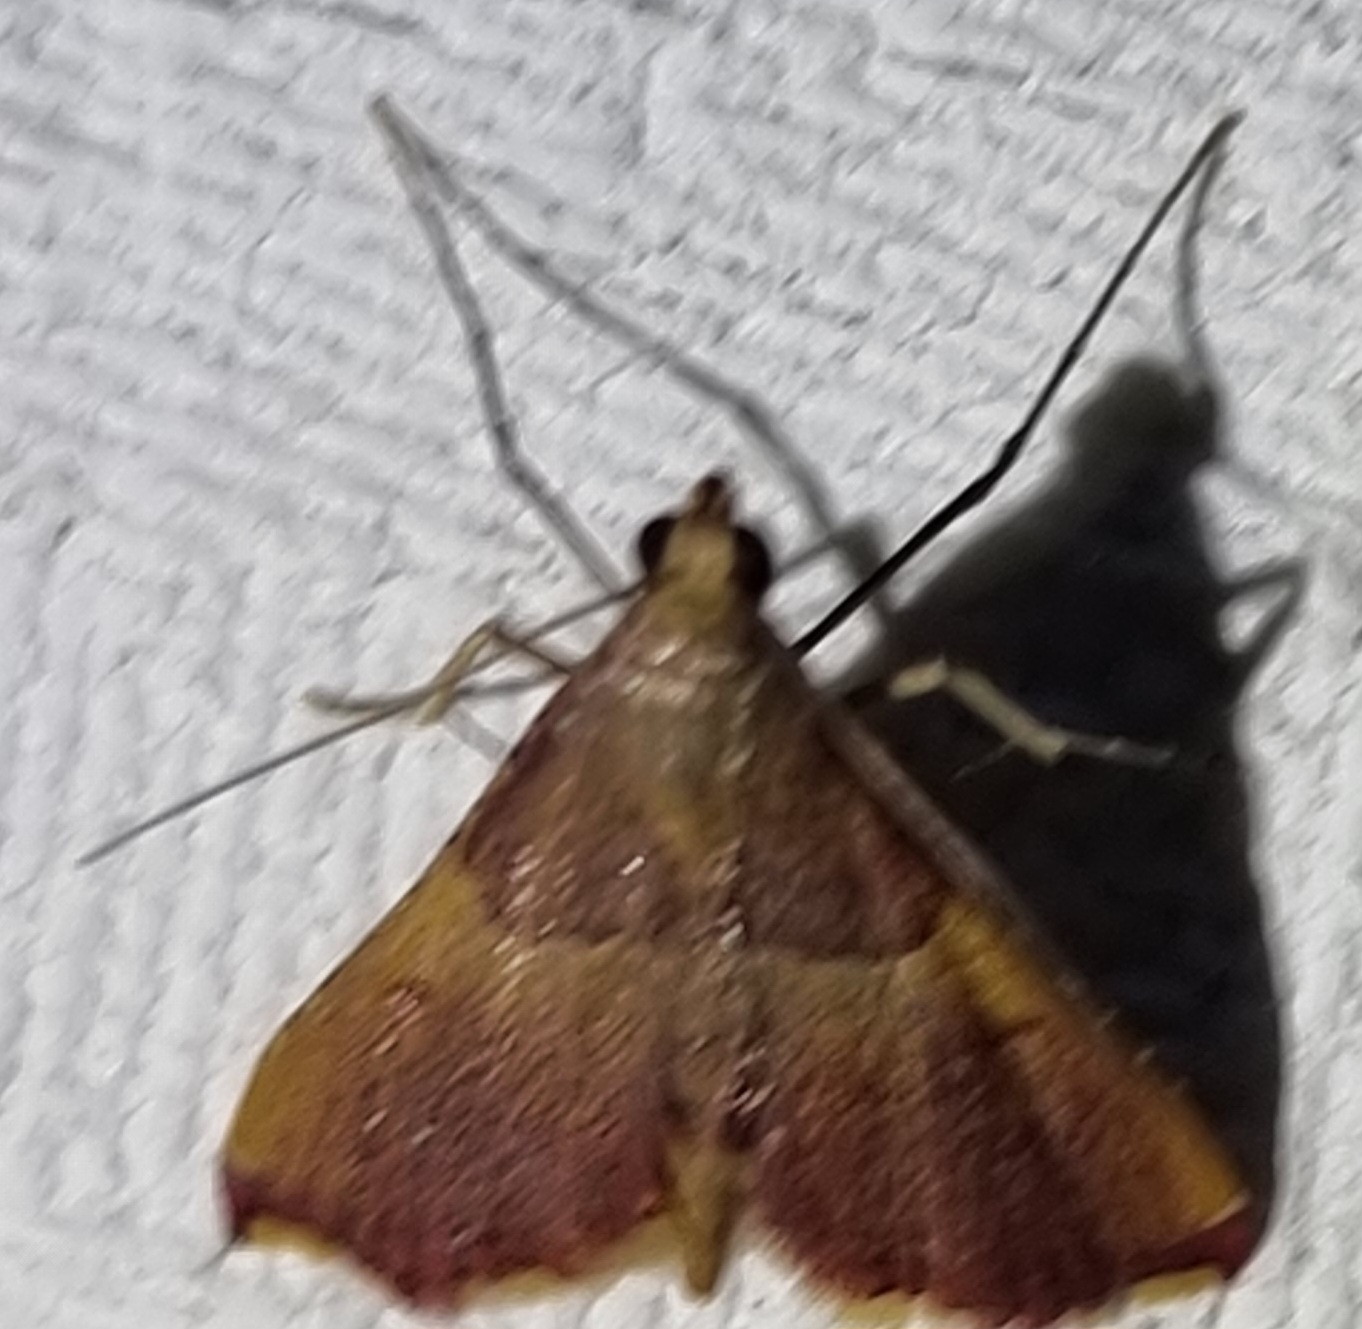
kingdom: Animalia
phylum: Arthropoda
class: Insecta
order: Lepidoptera
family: Pyralidae
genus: Endotricha
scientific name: Endotricha mesenterialis
